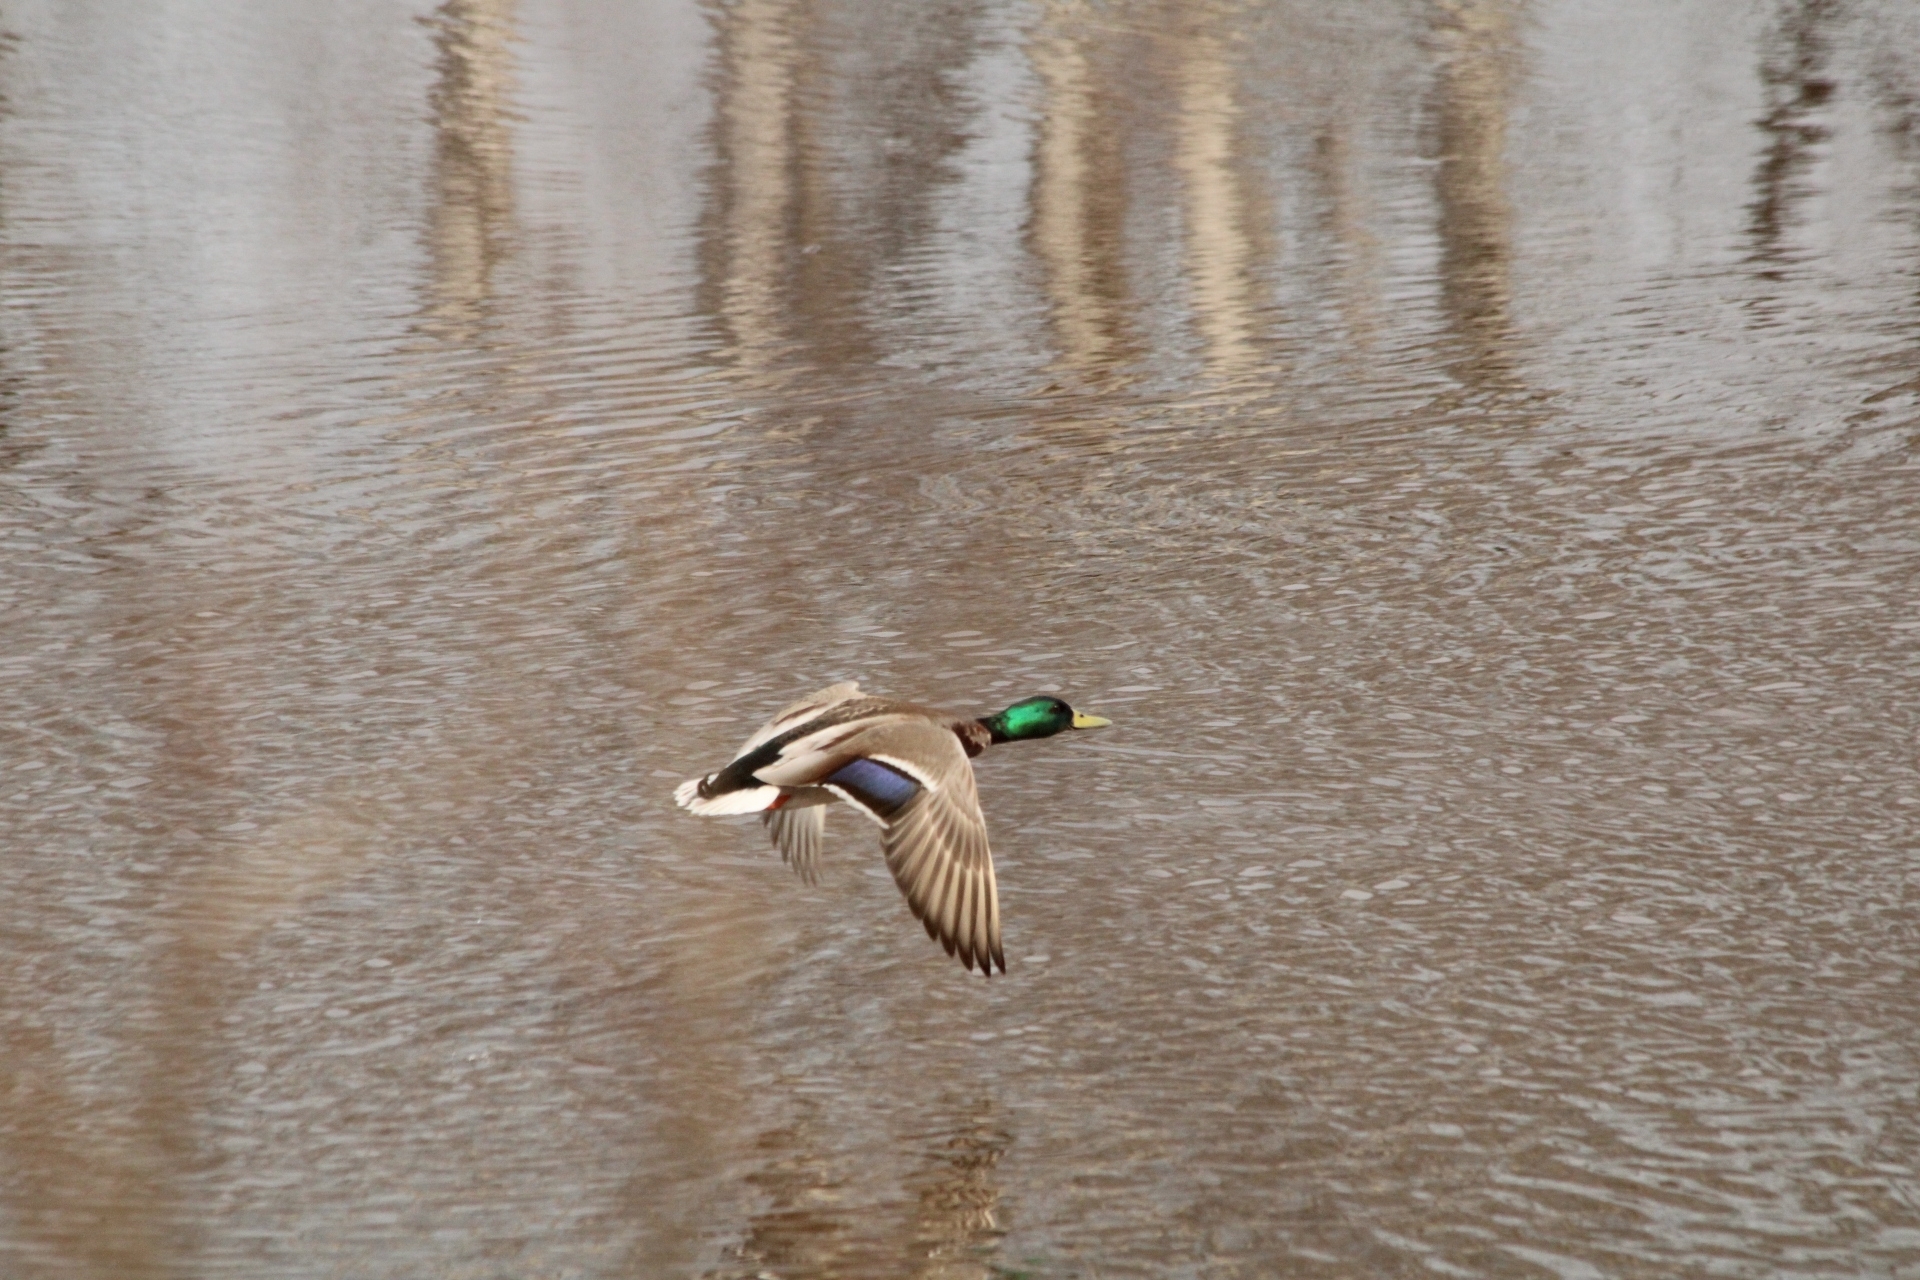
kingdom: Animalia
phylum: Chordata
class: Aves
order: Anseriformes
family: Anatidae
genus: Anas
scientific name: Anas platyrhynchos
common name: Mallard
